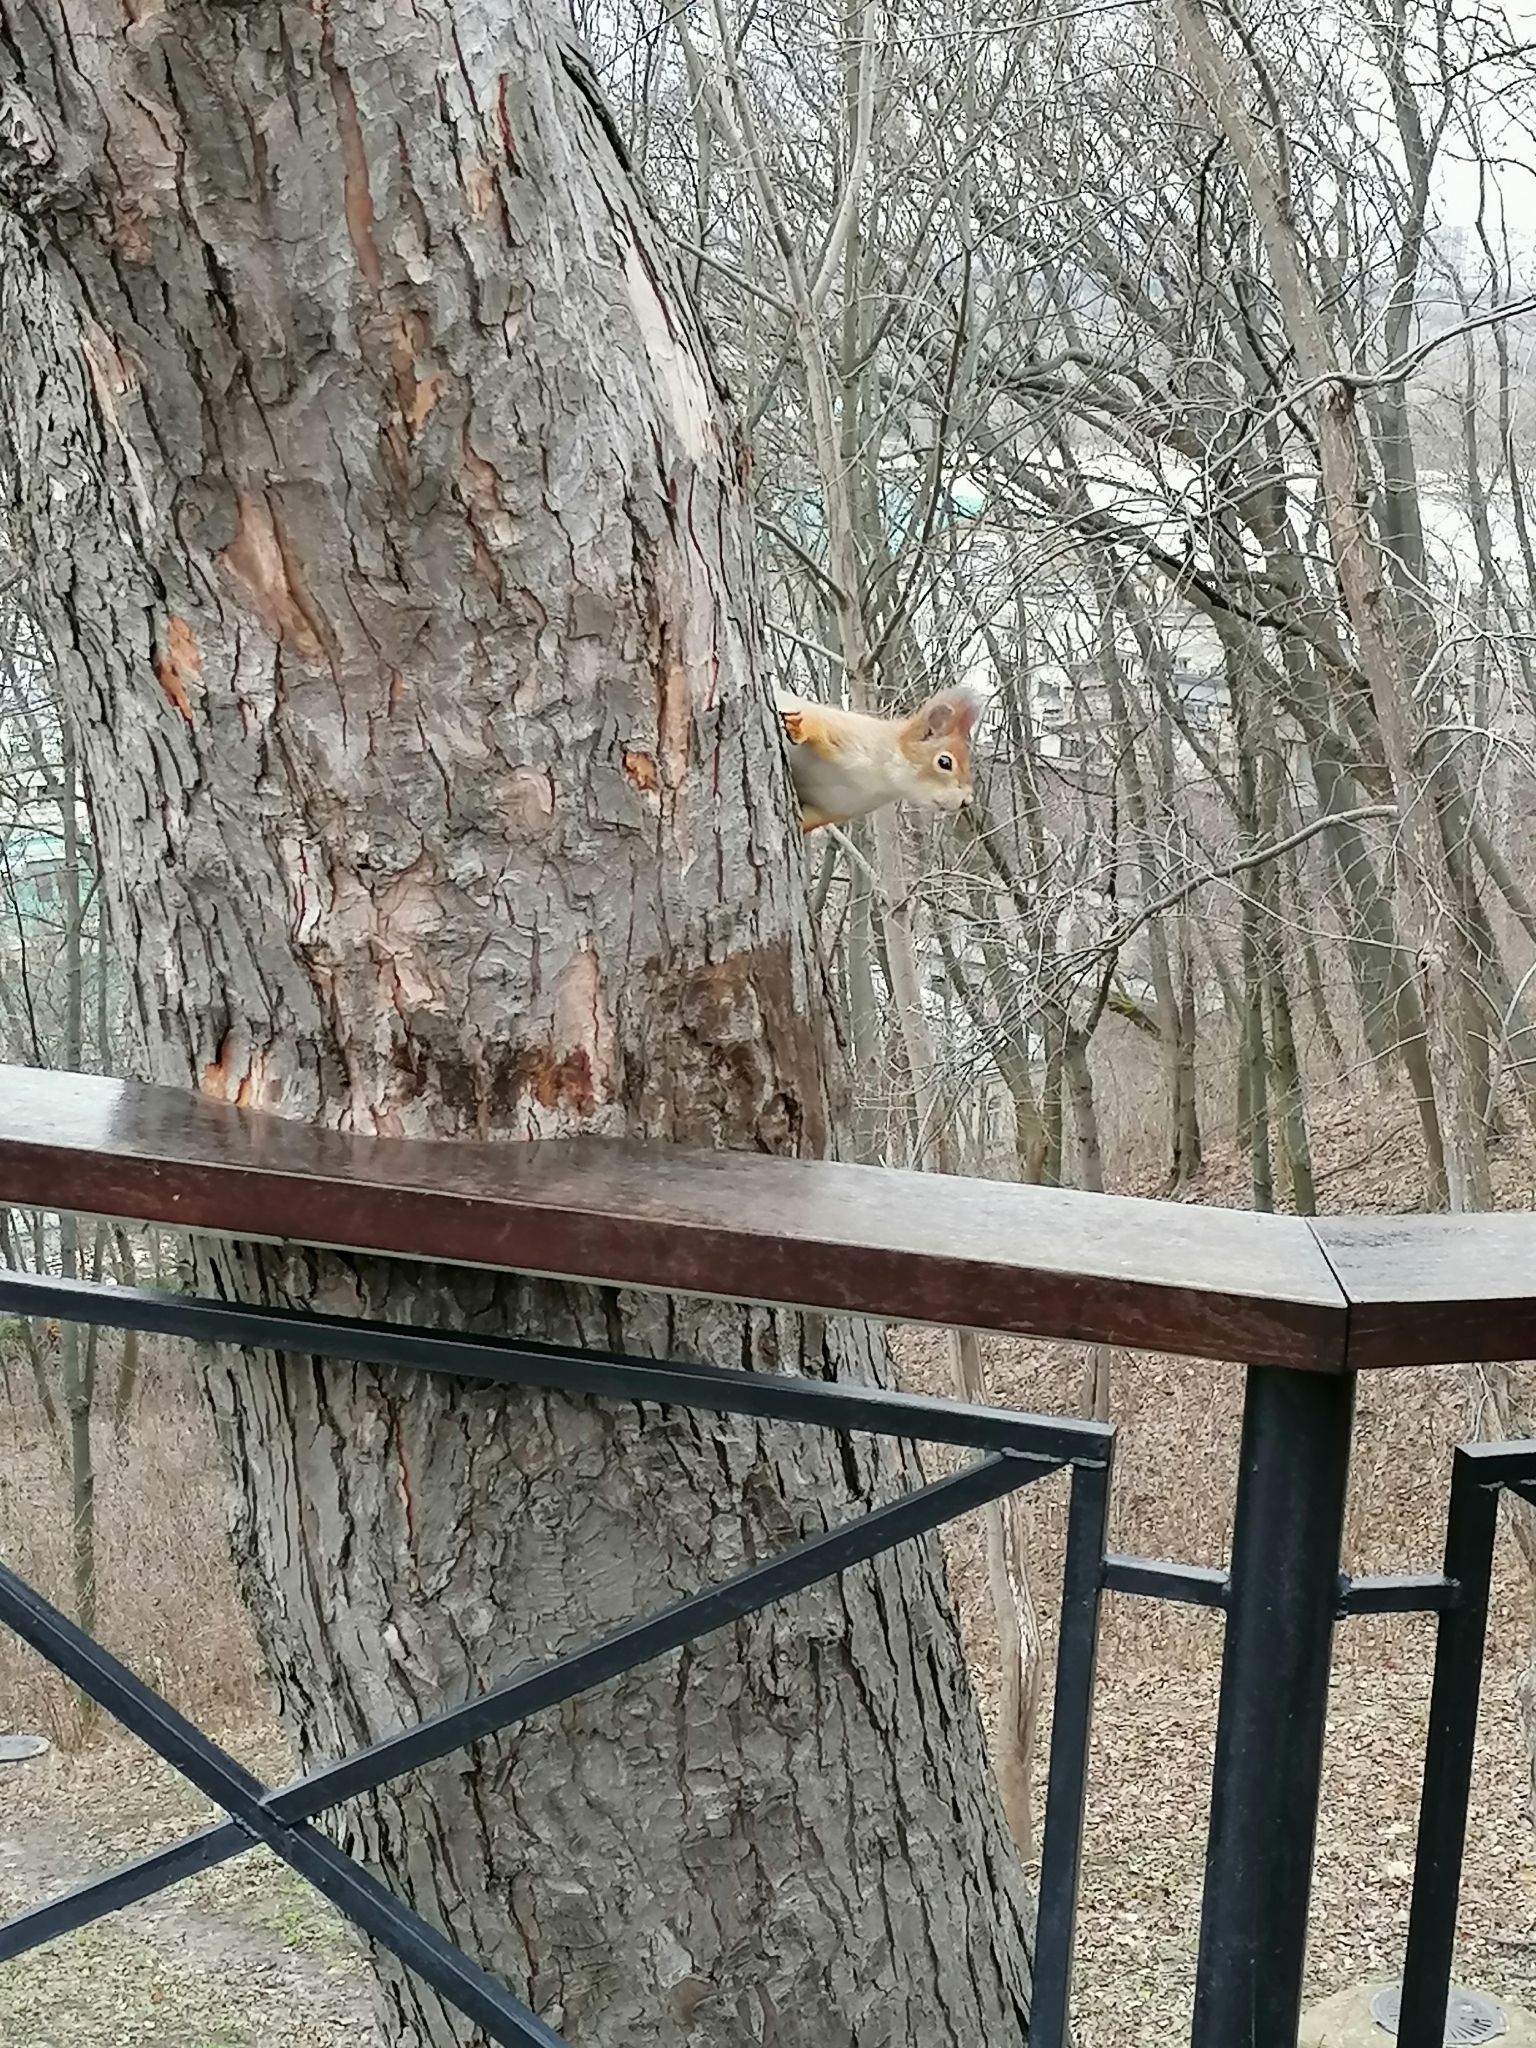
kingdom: Animalia
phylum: Chordata
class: Mammalia
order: Rodentia
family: Sciuridae
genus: Sciurus
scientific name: Sciurus vulgaris
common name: Eurasian red squirrel
